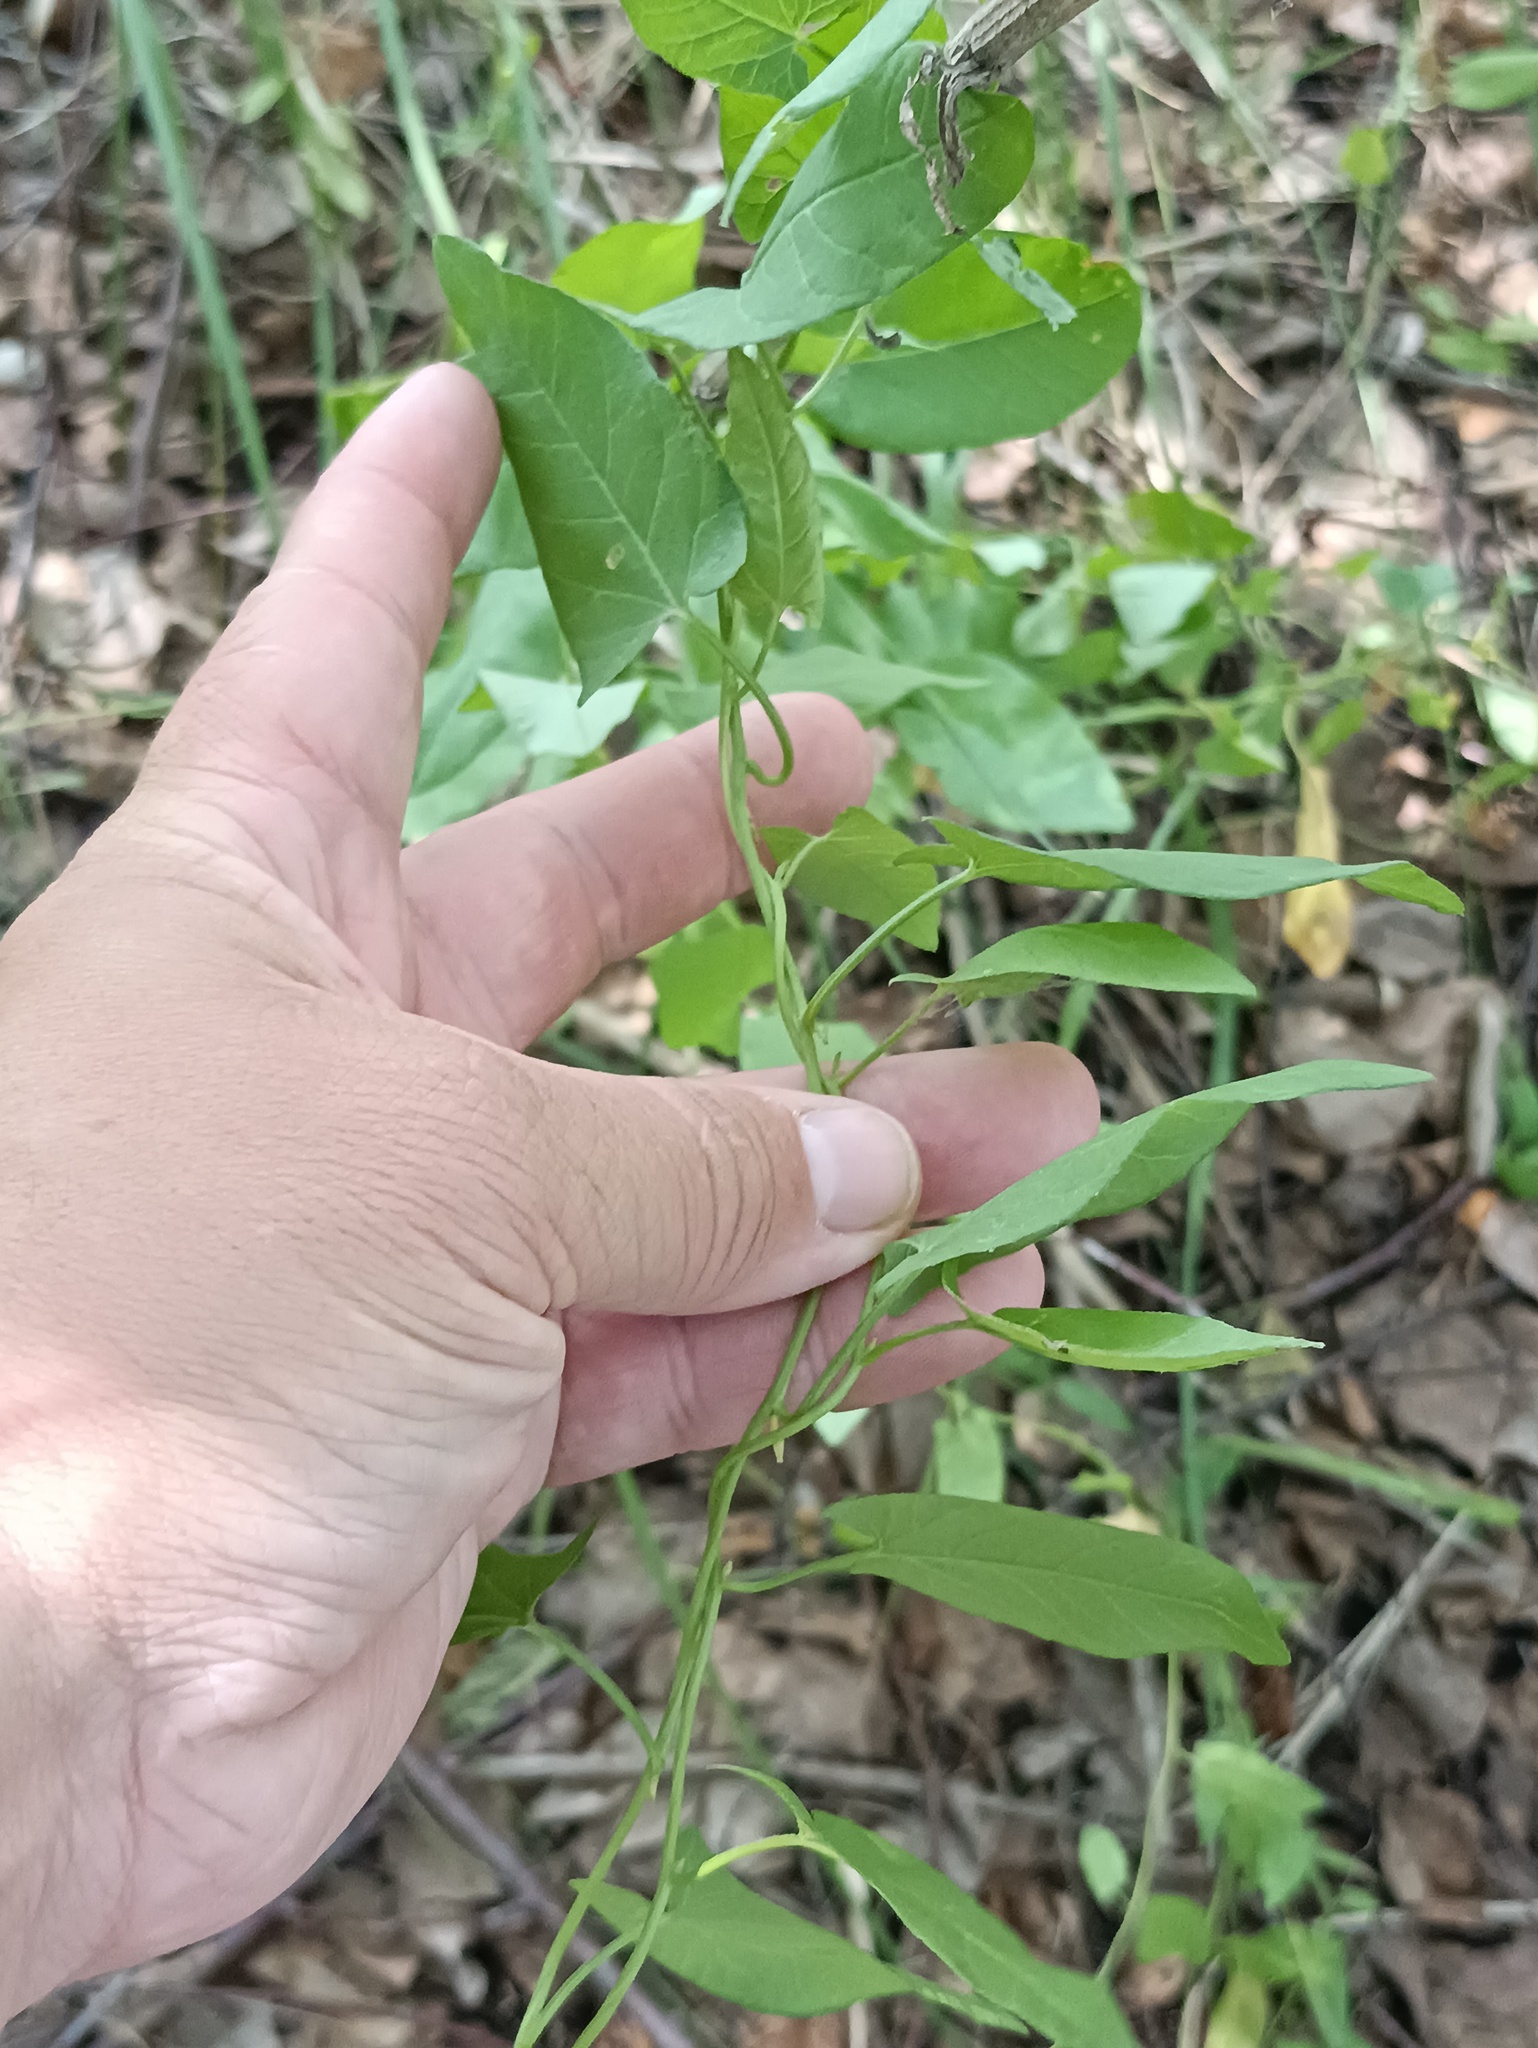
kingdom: Plantae
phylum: Tracheophyta
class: Magnoliopsida
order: Solanales
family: Convolvulaceae
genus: Convolvulus
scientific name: Convolvulus arvensis
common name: Field bindweed
